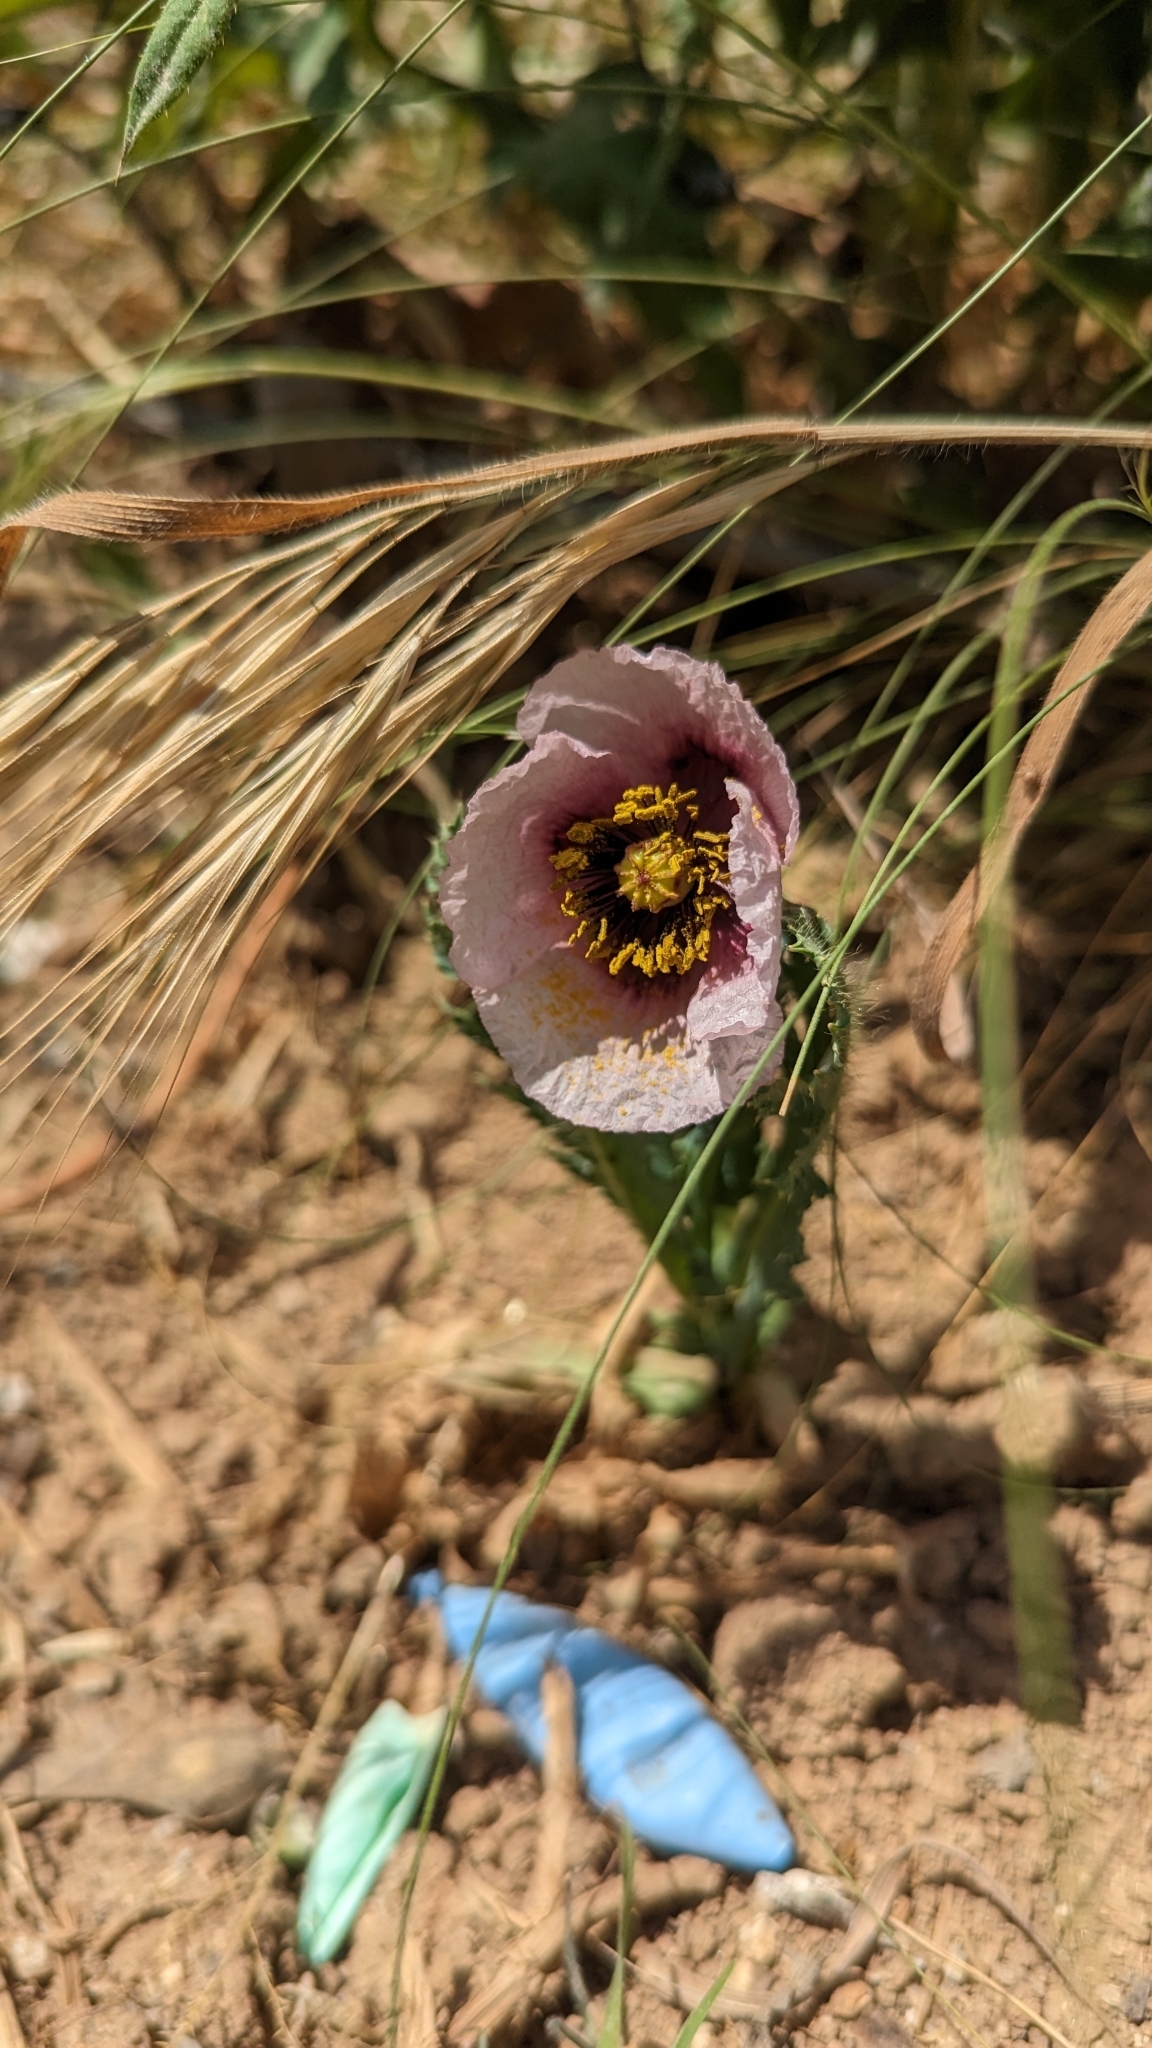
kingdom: Plantae
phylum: Tracheophyta
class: Magnoliopsida
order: Ranunculales
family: Papaveraceae
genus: Papaver
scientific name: Papaver somniferum
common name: Opium poppy
